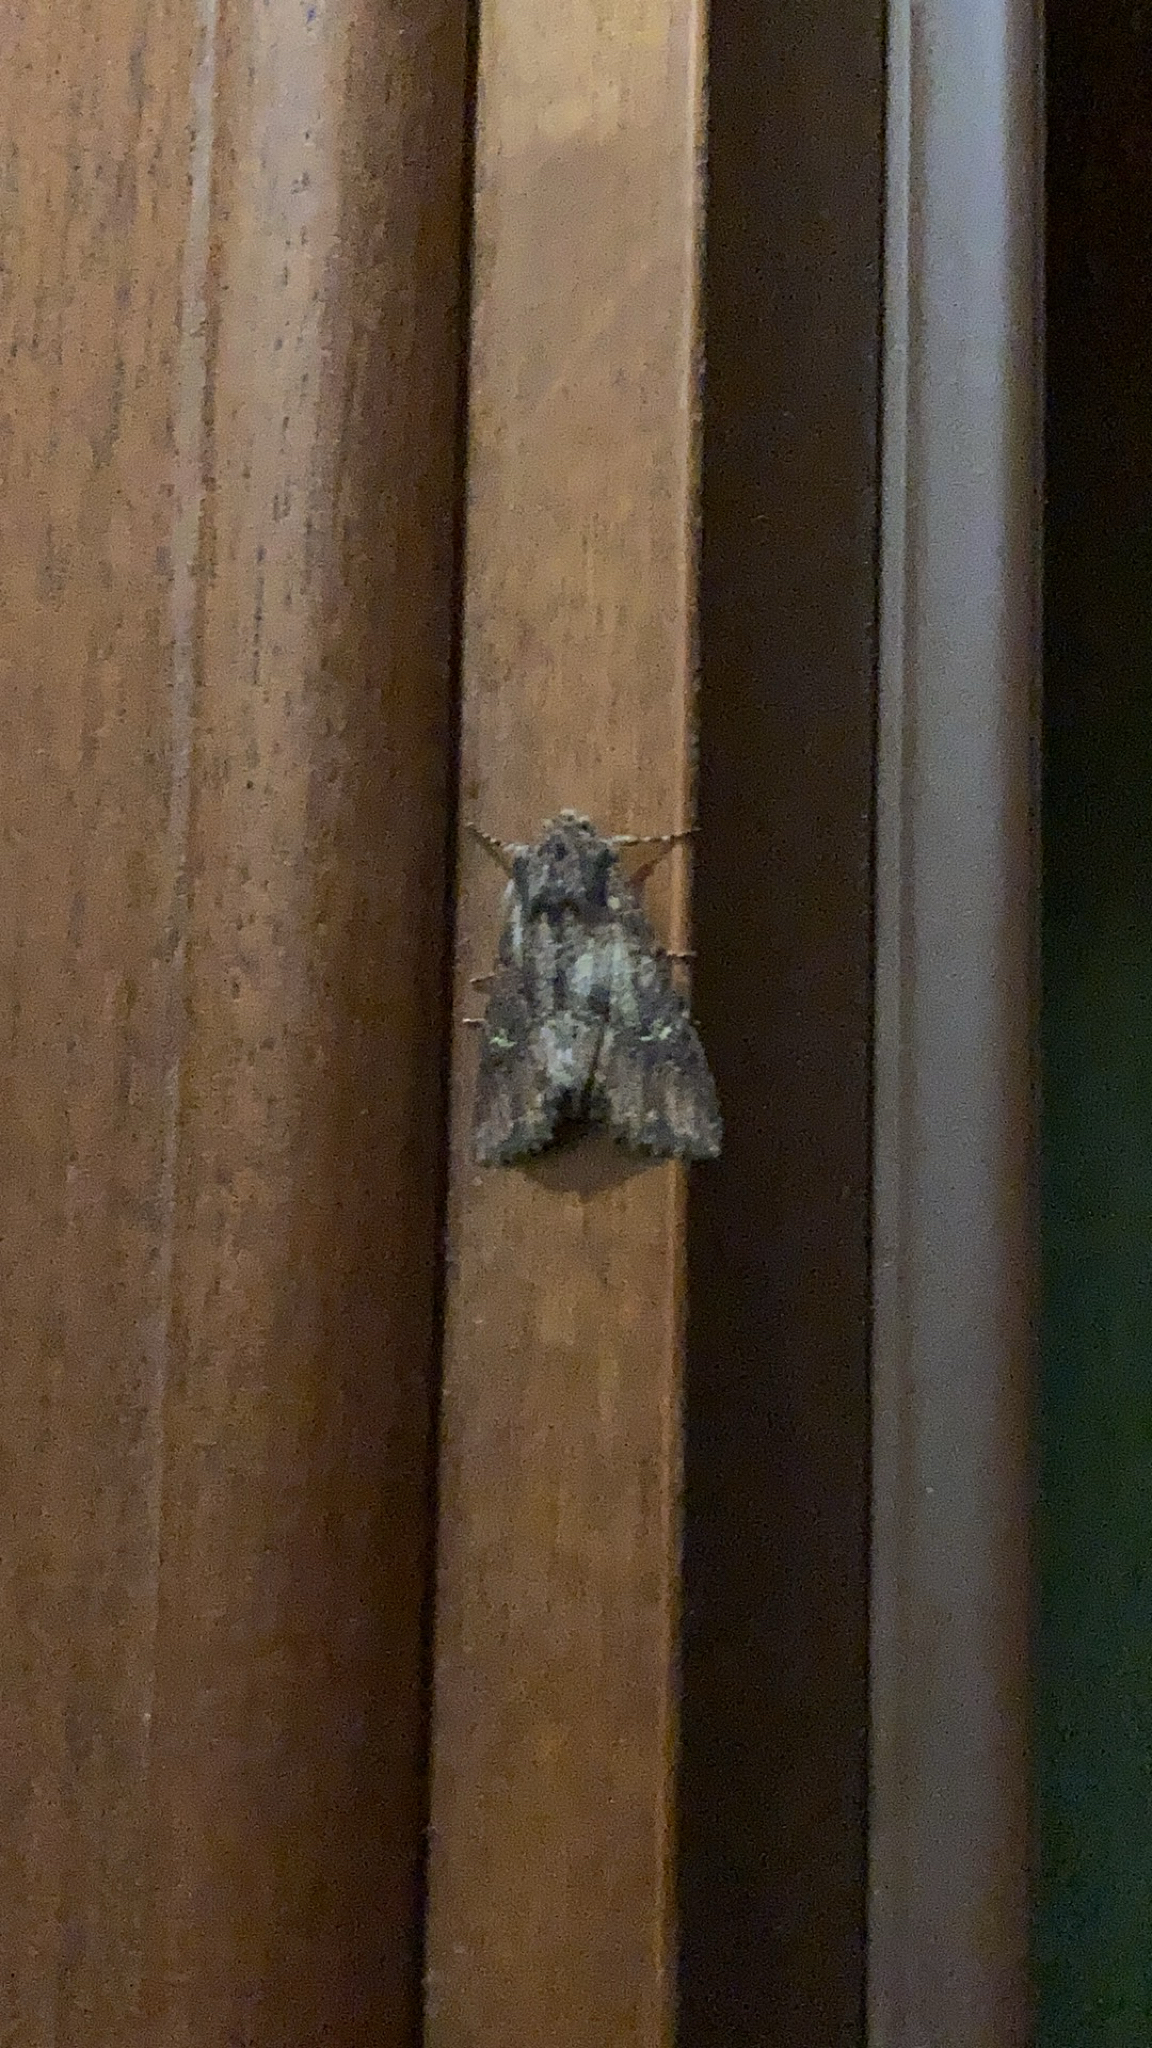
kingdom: Animalia
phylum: Arthropoda
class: Insecta
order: Lepidoptera
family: Noctuidae
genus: Mniotype
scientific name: Mniotype solieri
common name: Bedrule brocade
